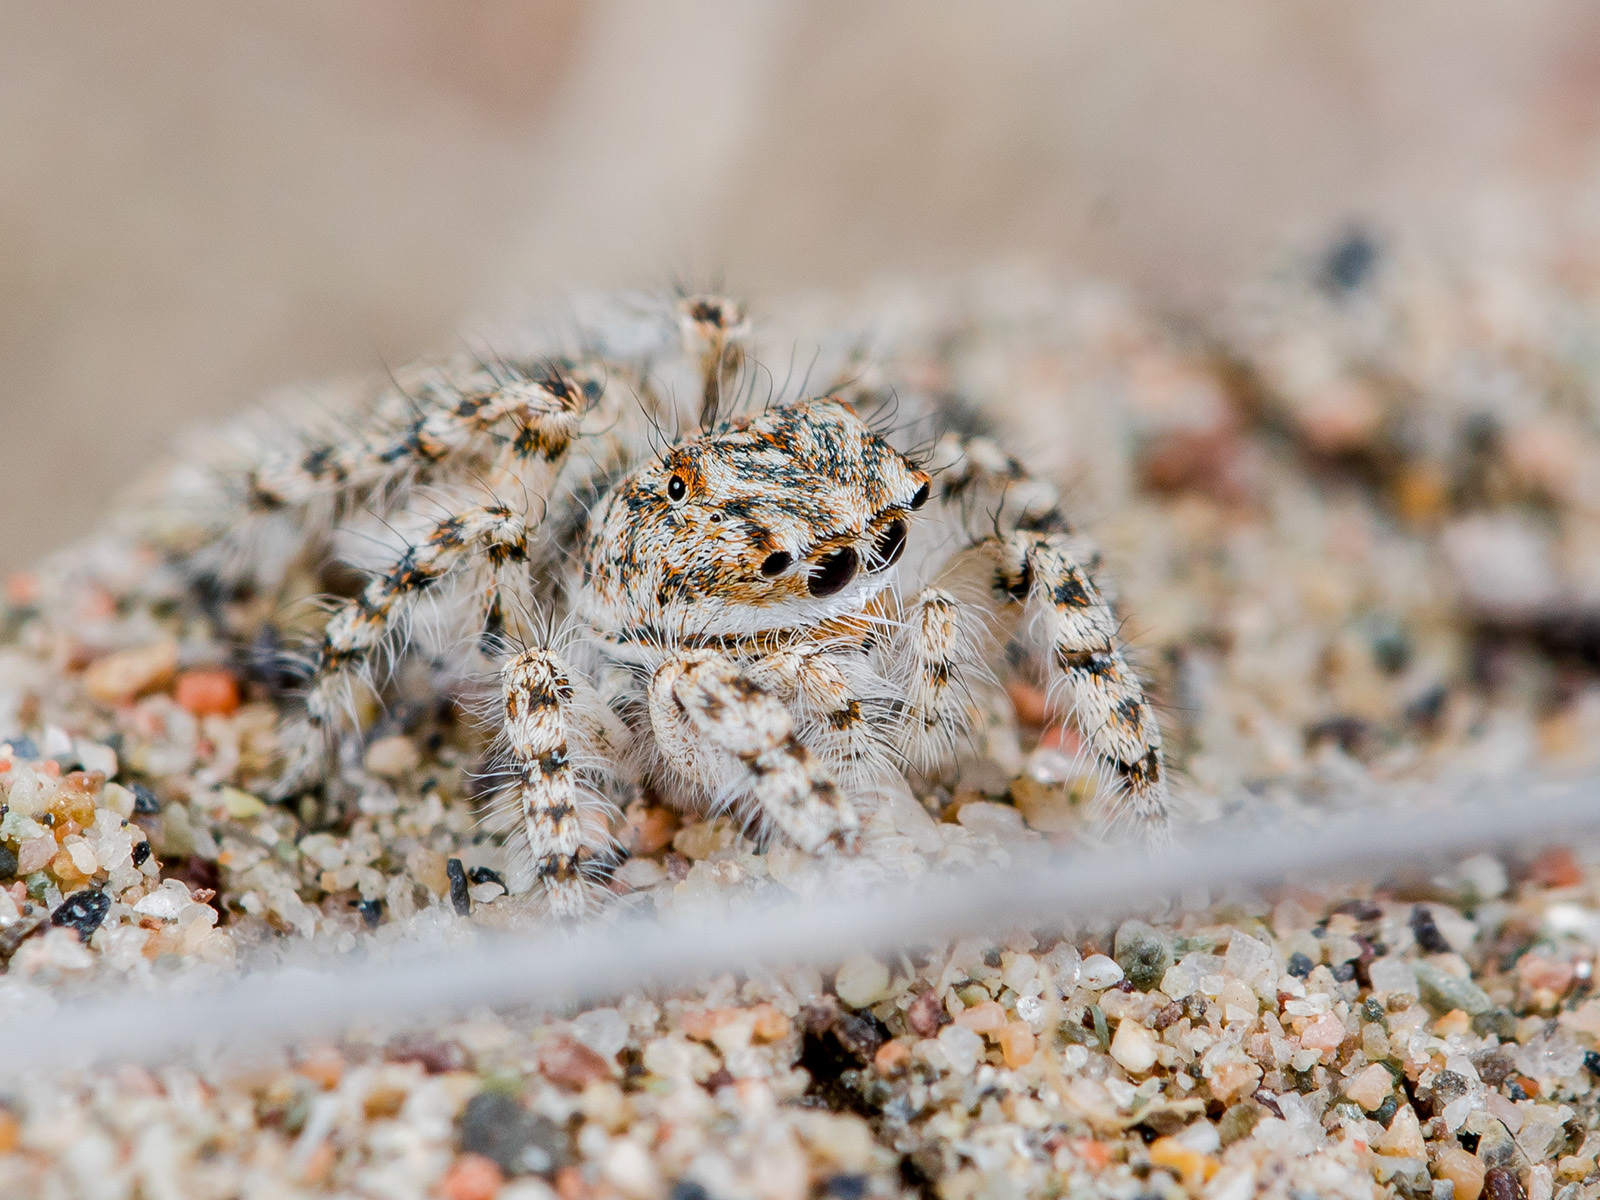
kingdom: Animalia
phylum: Arthropoda
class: Arachnida
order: Araneae
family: Salticidae
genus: Yllenus
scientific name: Yllenus uiguricus
